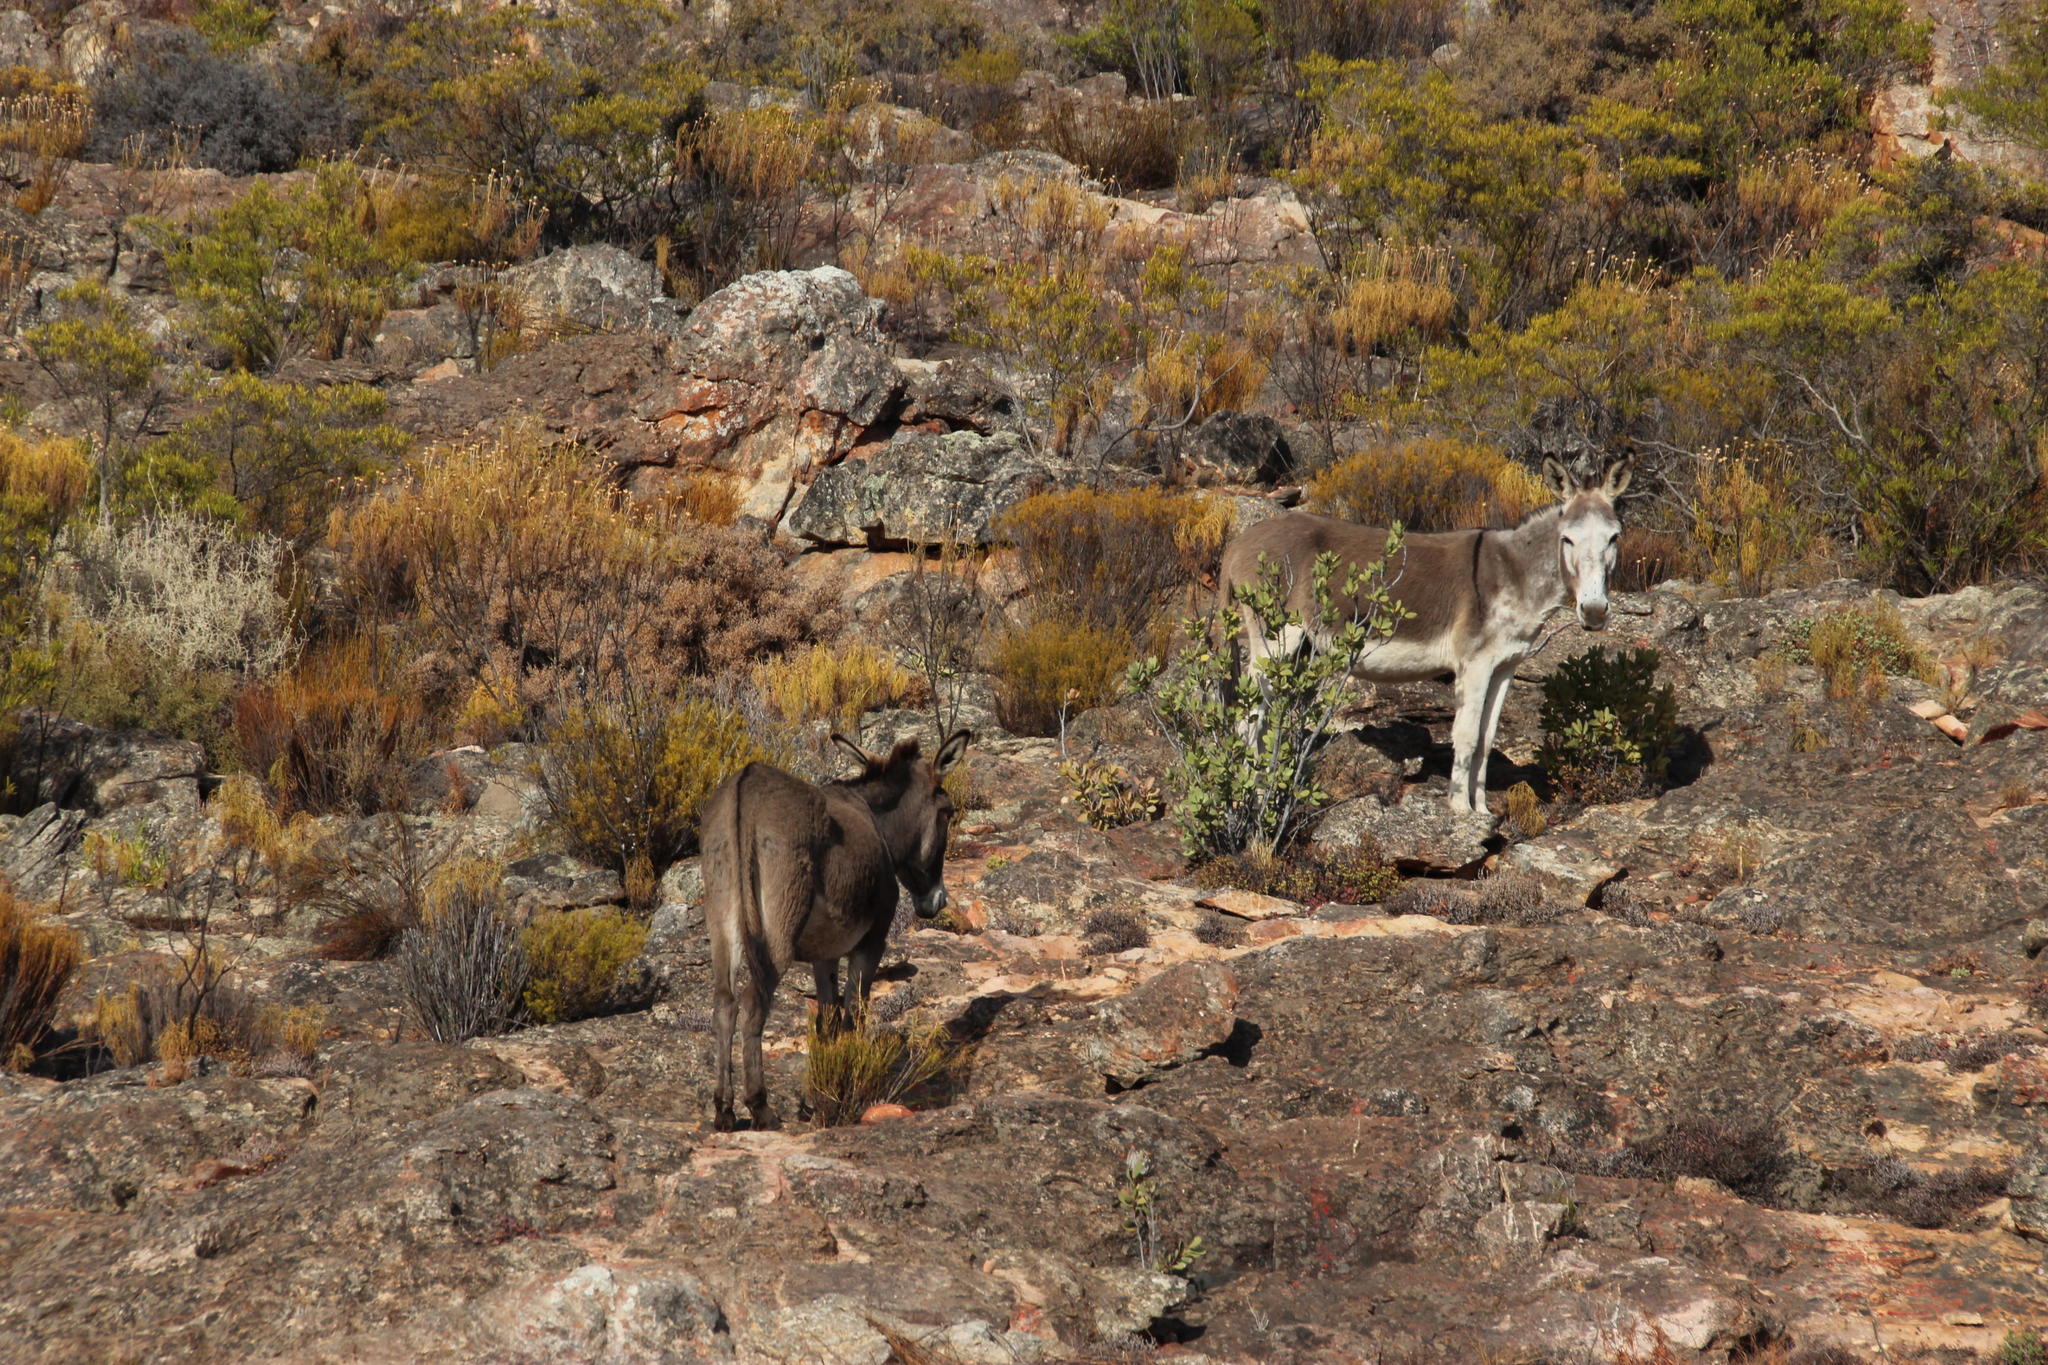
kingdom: Animalia
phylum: Chordata
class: Mammalia
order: Perissodactyla
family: Equidae
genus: Equus
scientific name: Equus asinus
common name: Ass
